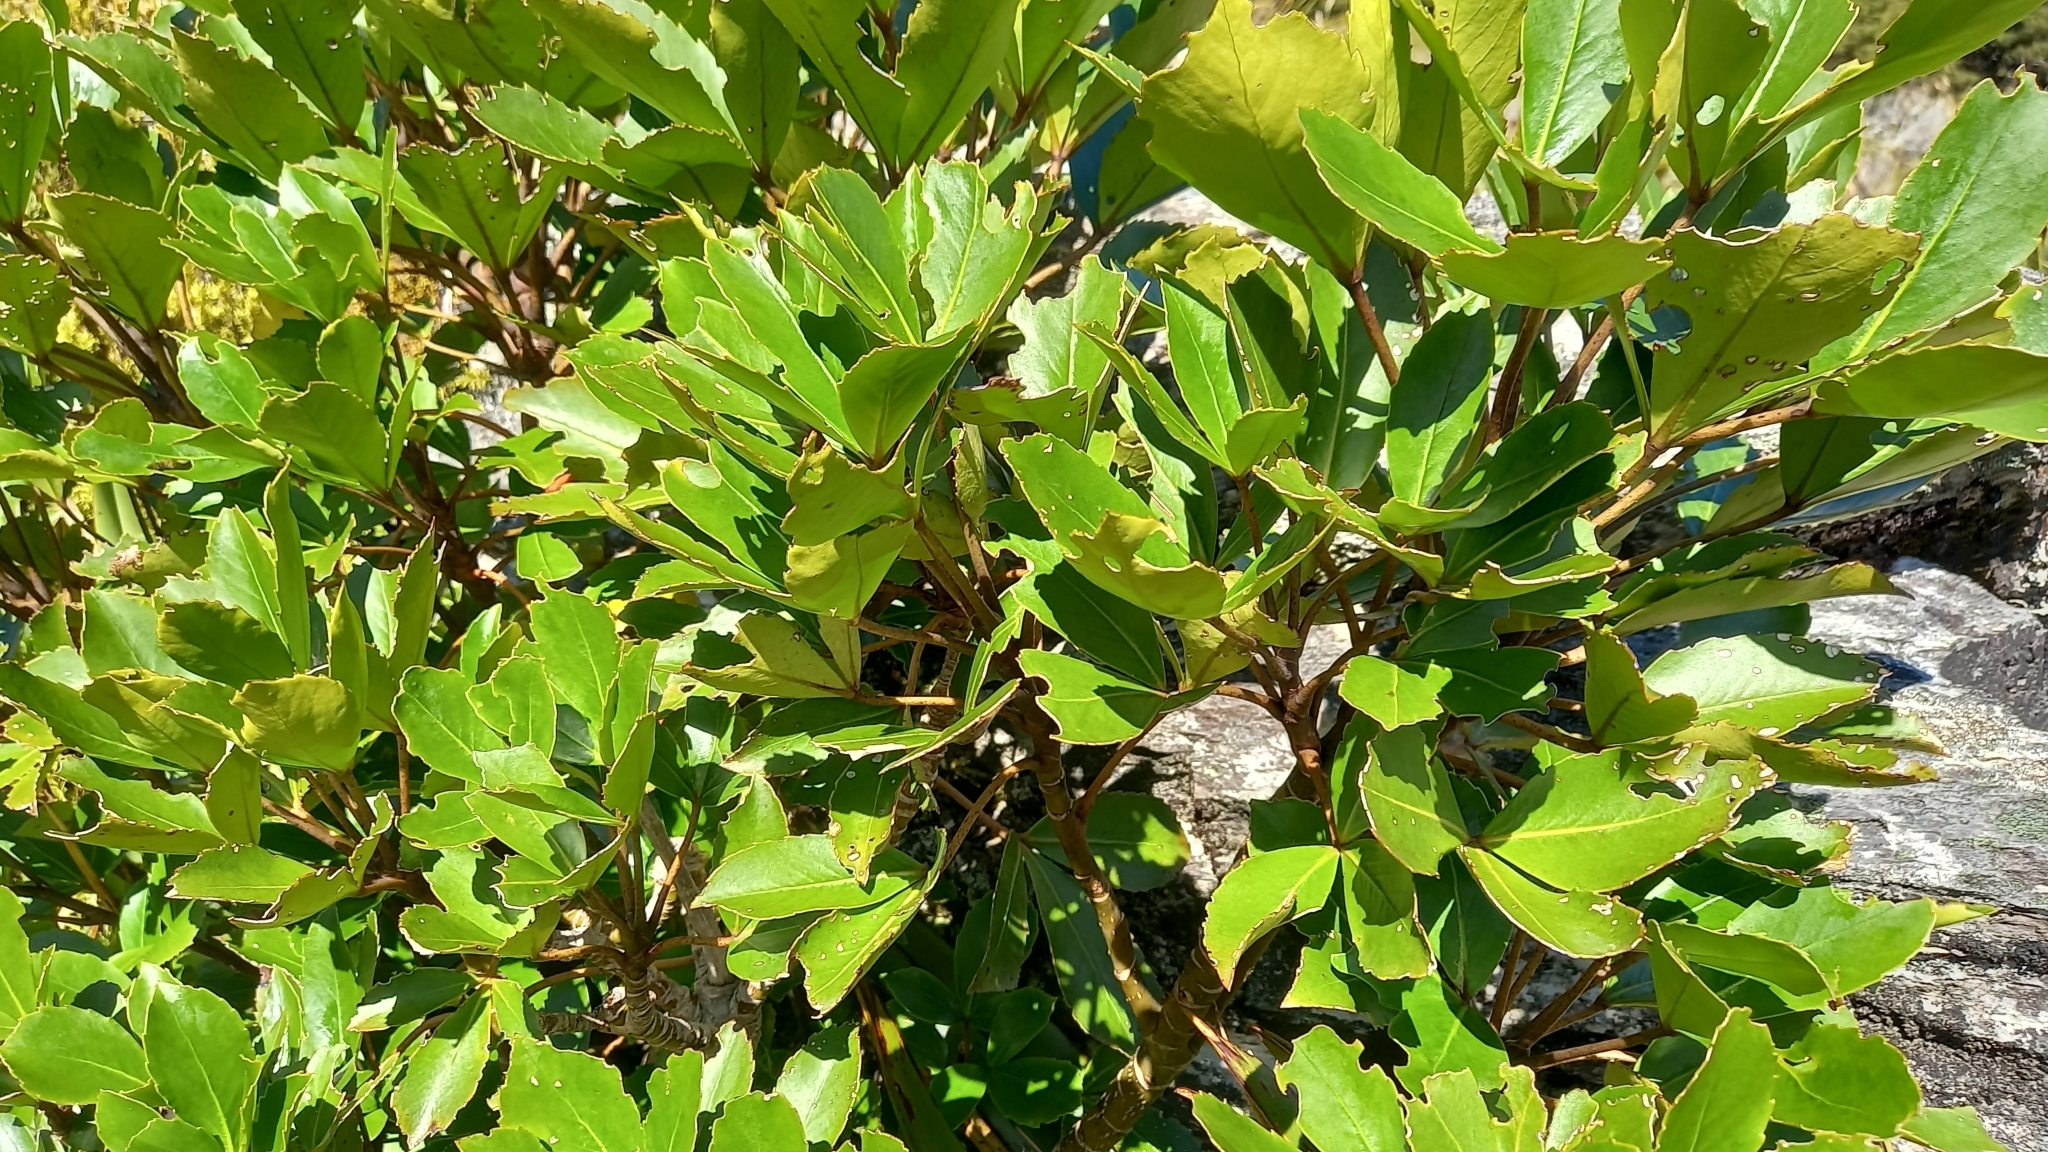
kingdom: Plantae
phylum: Tracheophyta
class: Magnoliopsida
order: Apiales
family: Araliaceae
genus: Neopanax
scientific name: Neopanax colensoi
